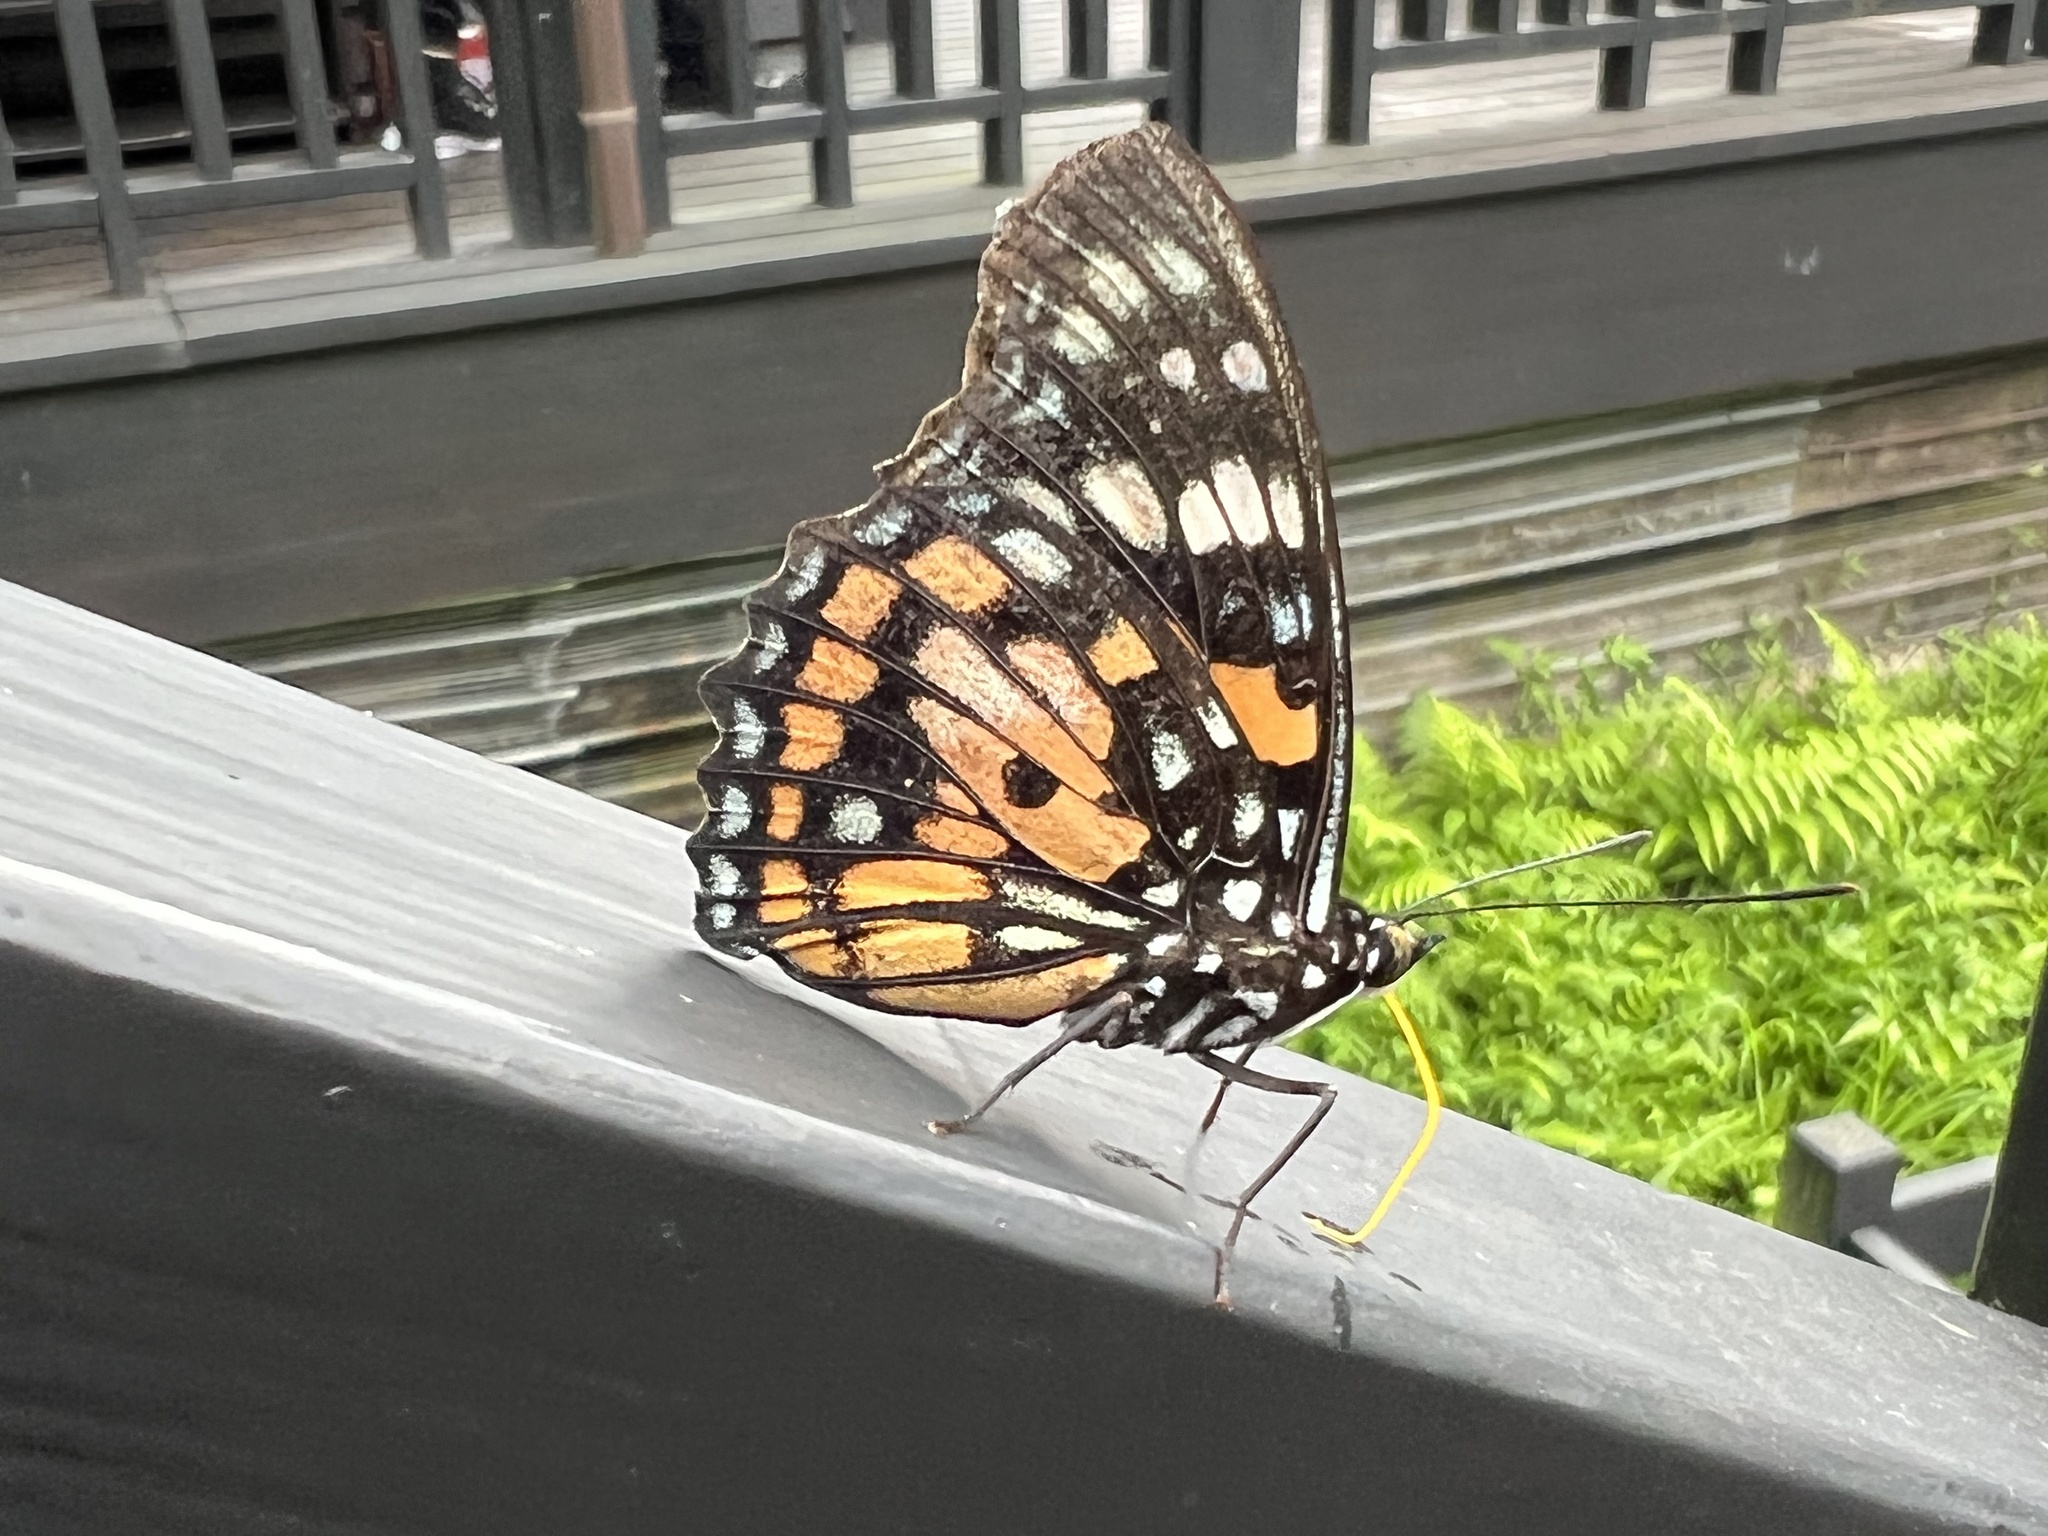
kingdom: Animalia
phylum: Arthropoda
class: Insecta
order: Lepidoptera
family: Nymphalidae
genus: Sephisa
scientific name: Sephisa chandra
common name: Eastern courtier
